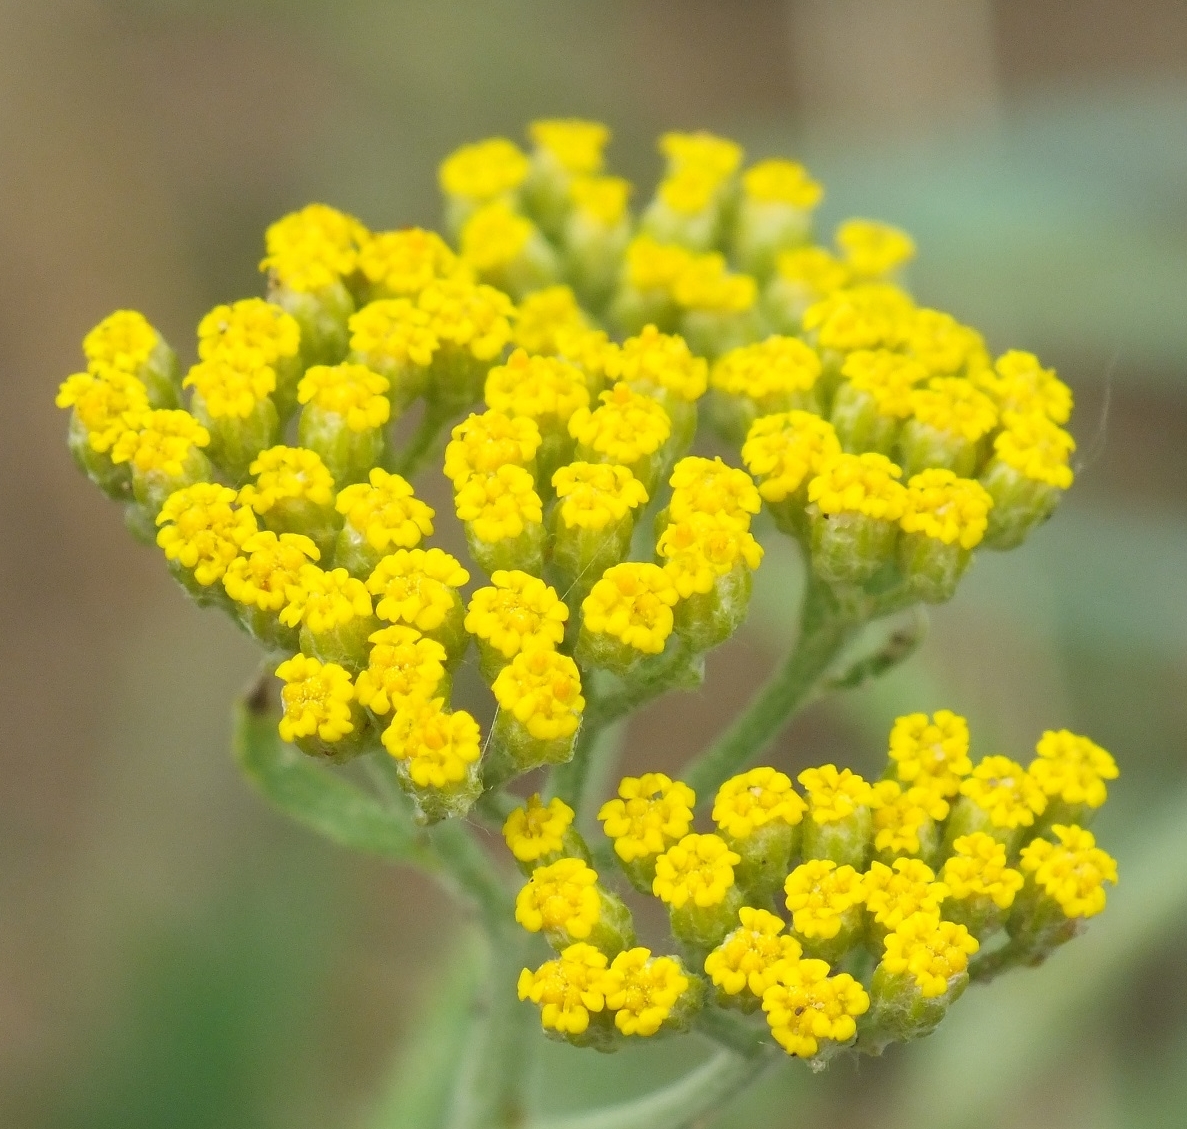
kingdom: Plantae
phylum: Tracheophyta
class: Magnoliopsida
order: Asterales
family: Asteraceae
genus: Achillea
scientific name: Achillea micrantha
